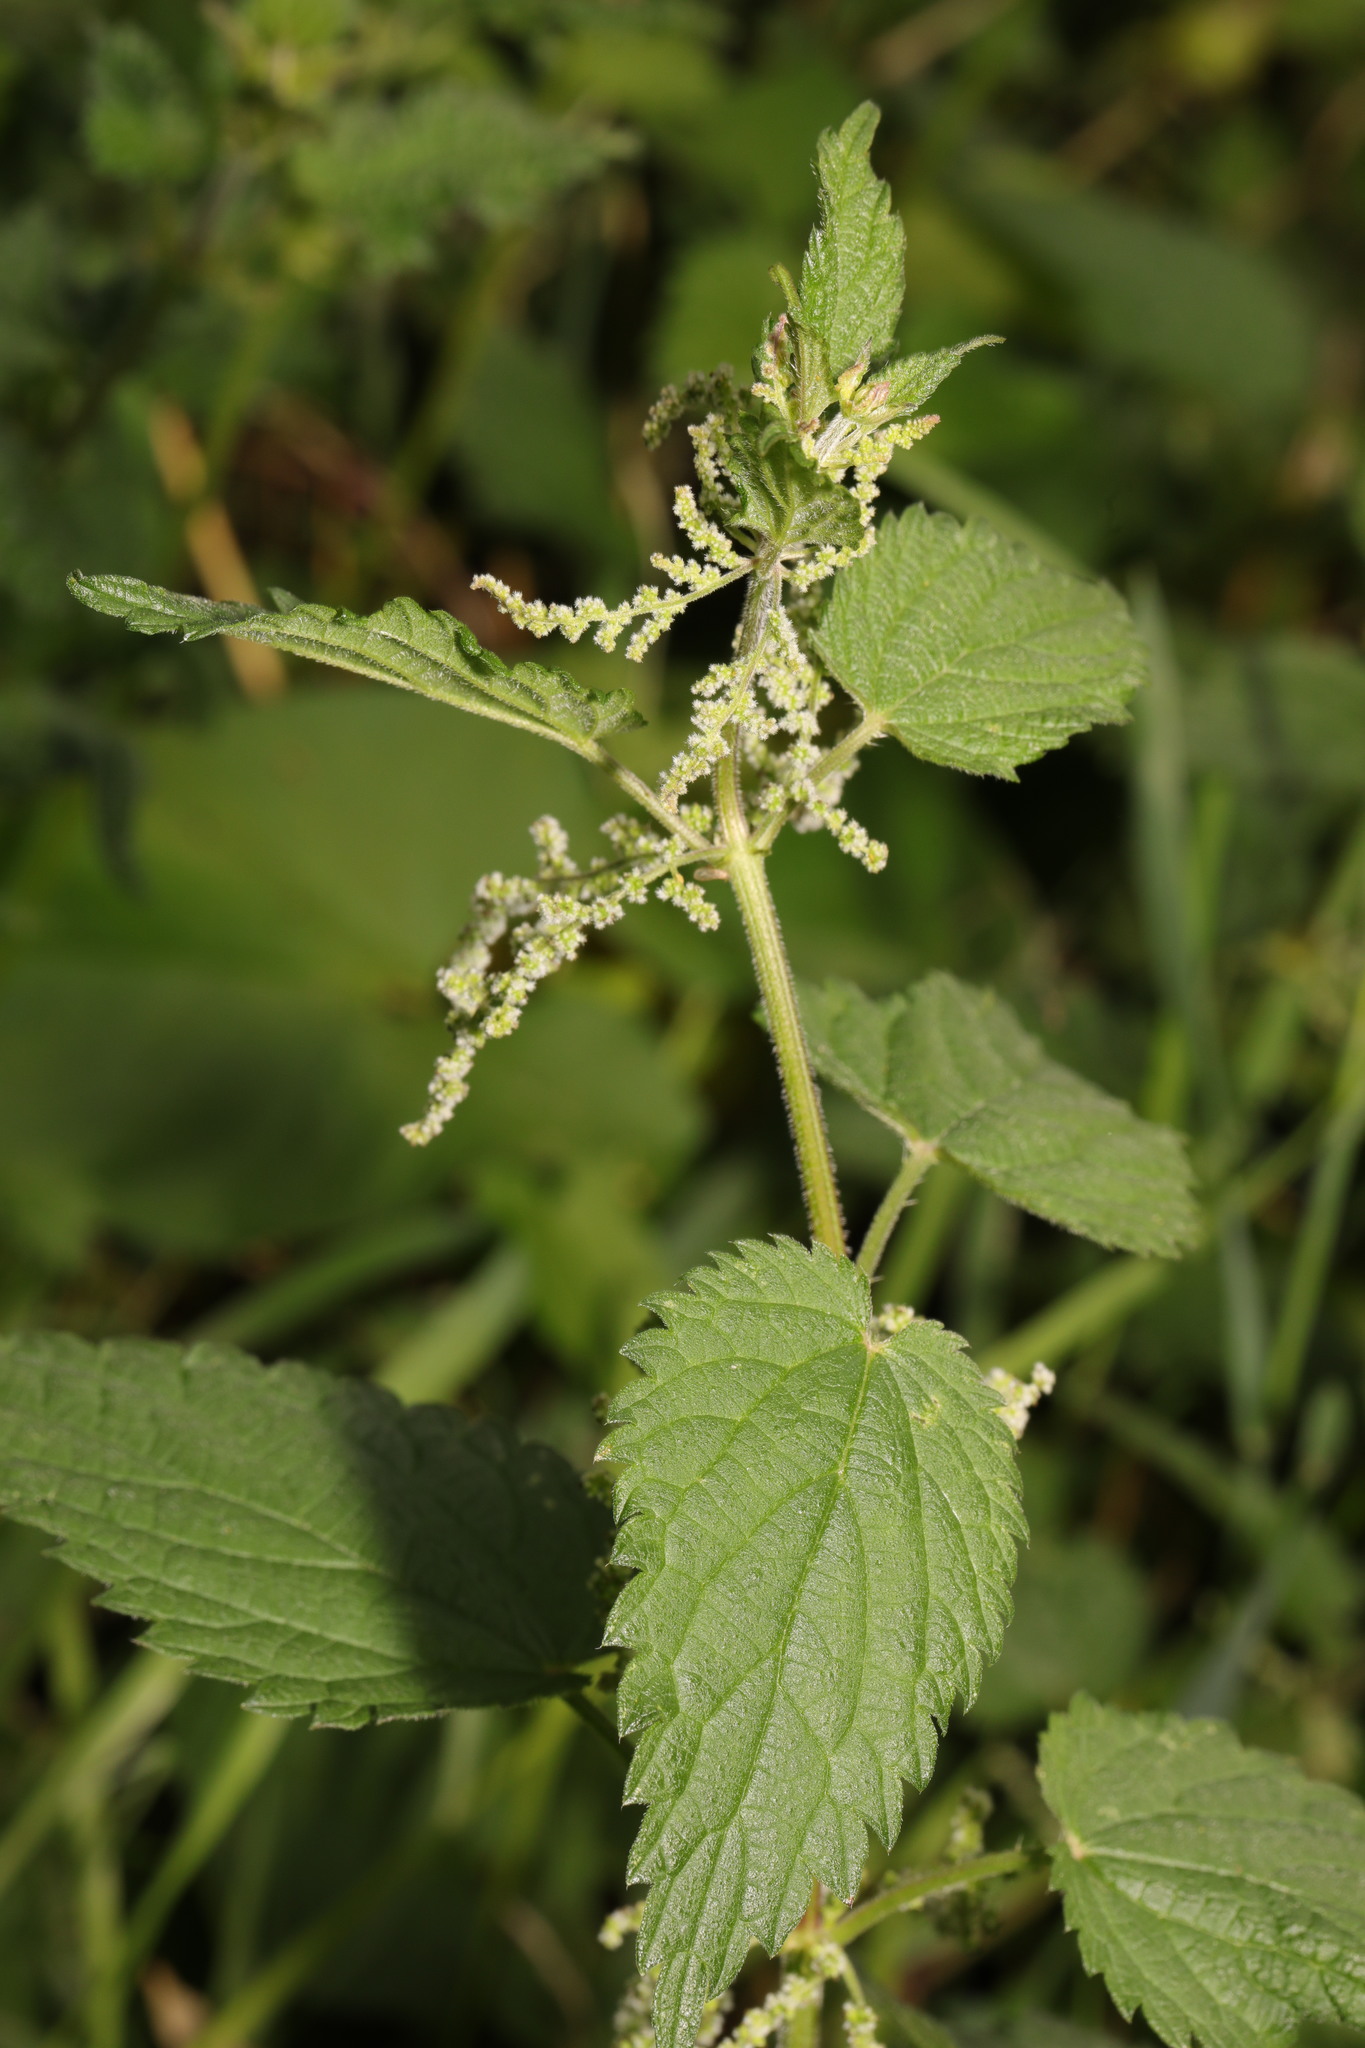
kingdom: Plantae
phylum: Tracheophyta
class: Magnoliopsida
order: Rosales
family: Urticaceae
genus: Urtica
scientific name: Urtica dioica
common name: Common nettle
